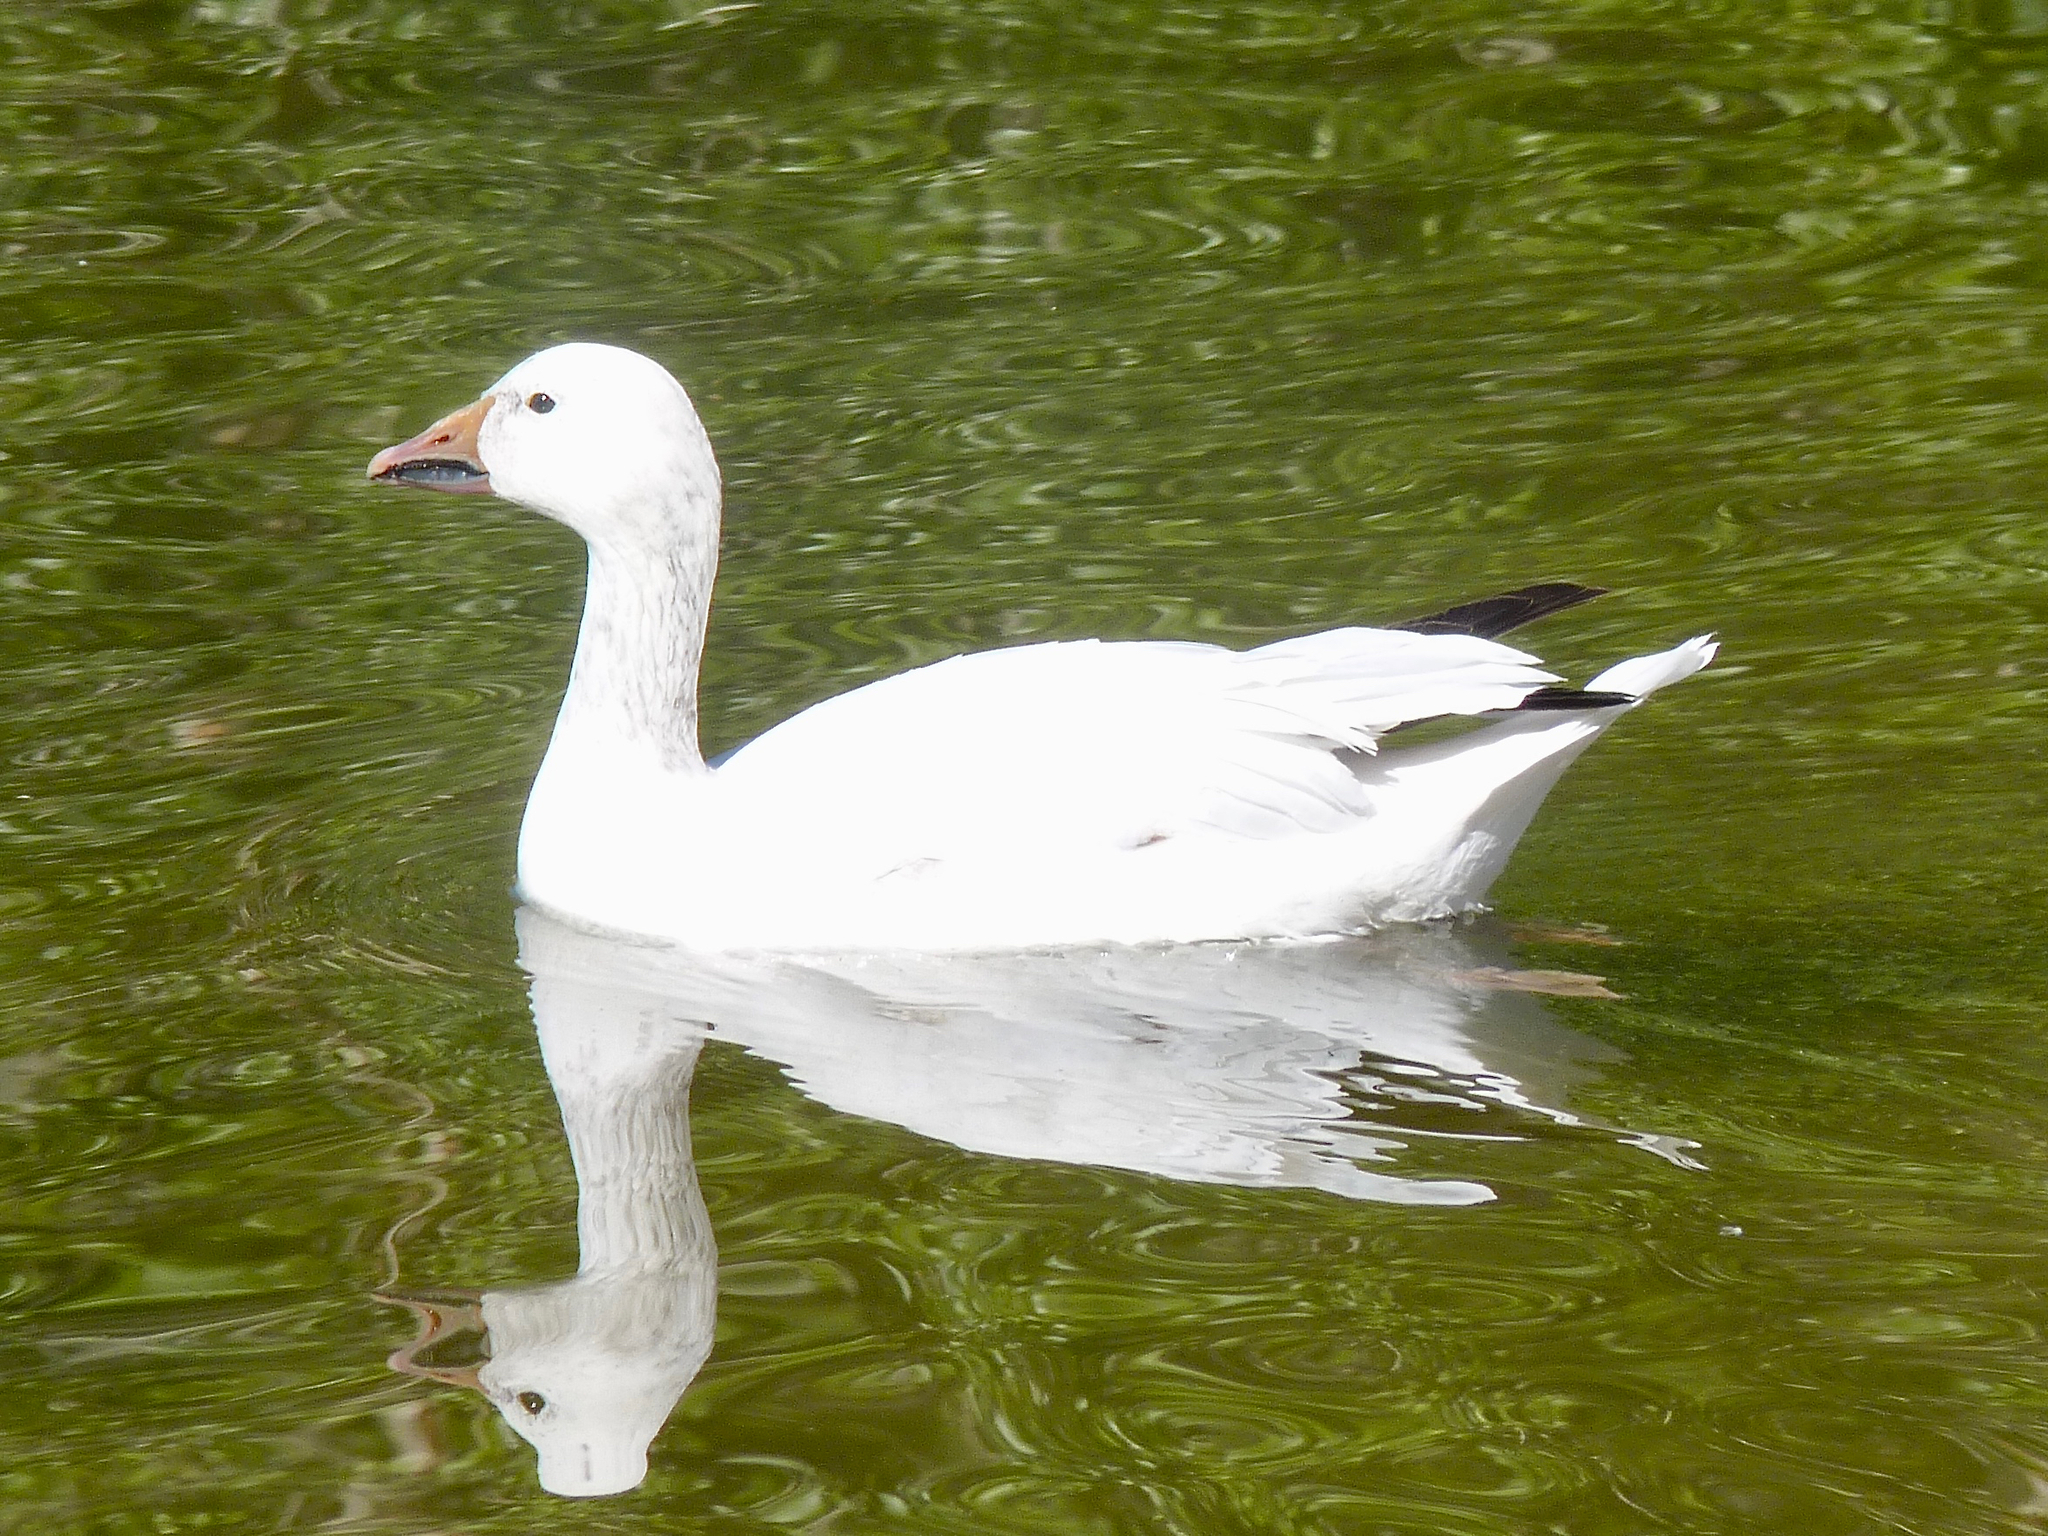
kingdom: Animalia
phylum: Chordata
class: Aves
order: Anseriformes
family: Anatidae
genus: Anser
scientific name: Anser caerulescens
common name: Snow goose
